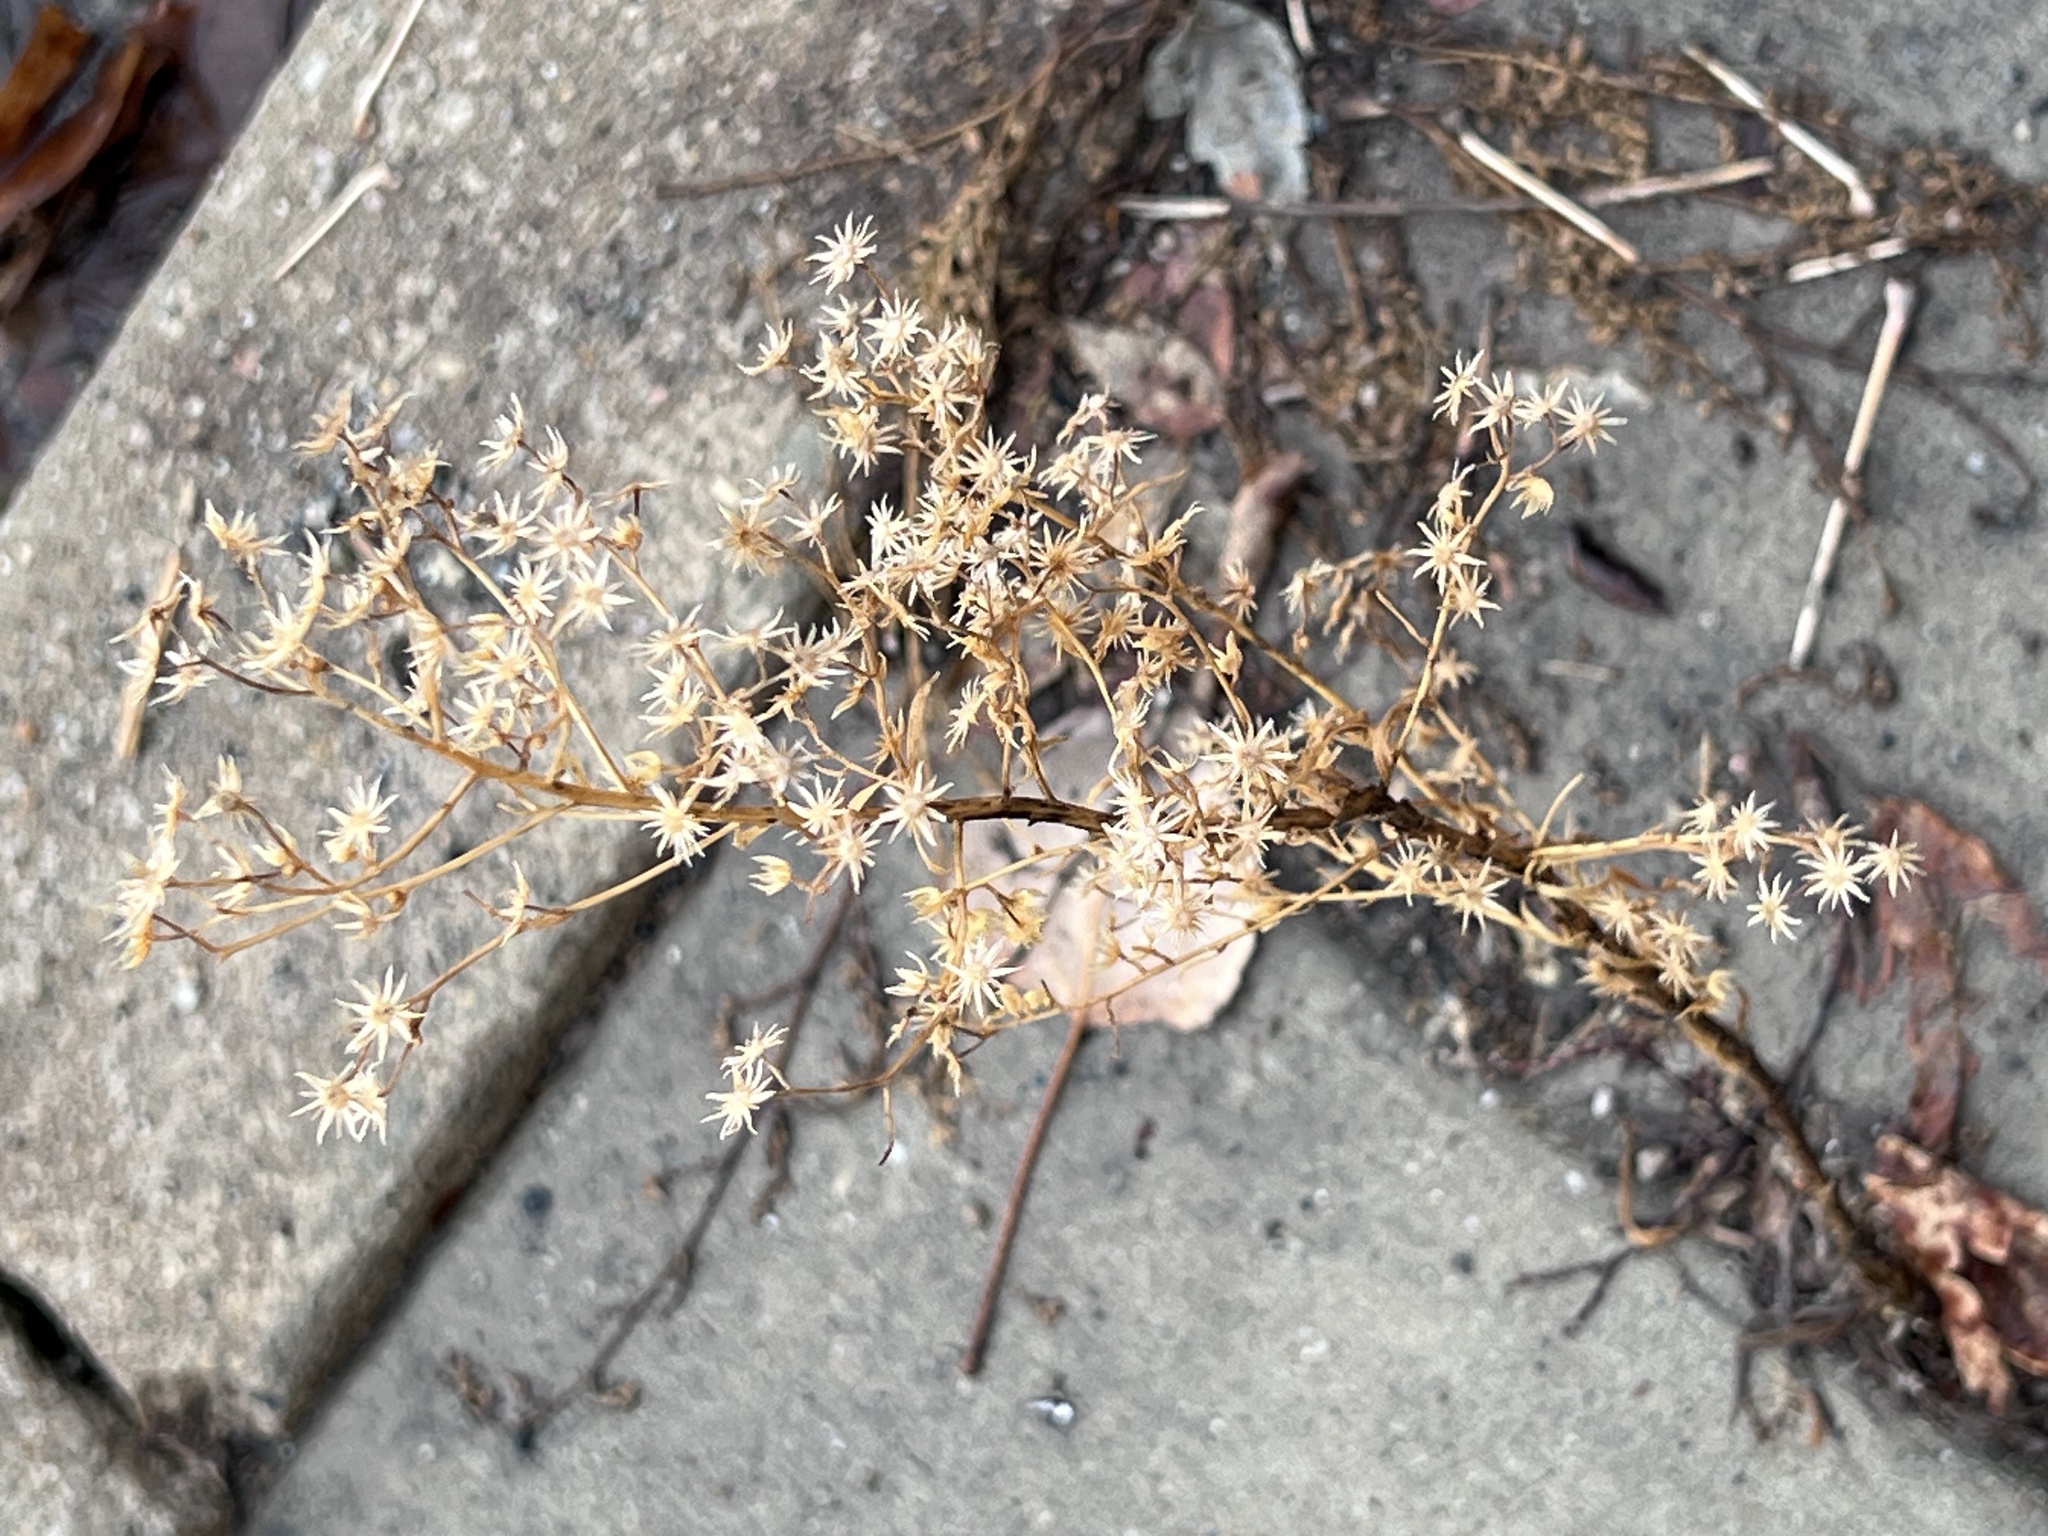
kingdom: Plantae
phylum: Tracheophyta
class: Magnoliopsida
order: Asterales
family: Asteraceae
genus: Erigeron
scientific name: Erigeron canadensis
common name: Canadian fleabane
